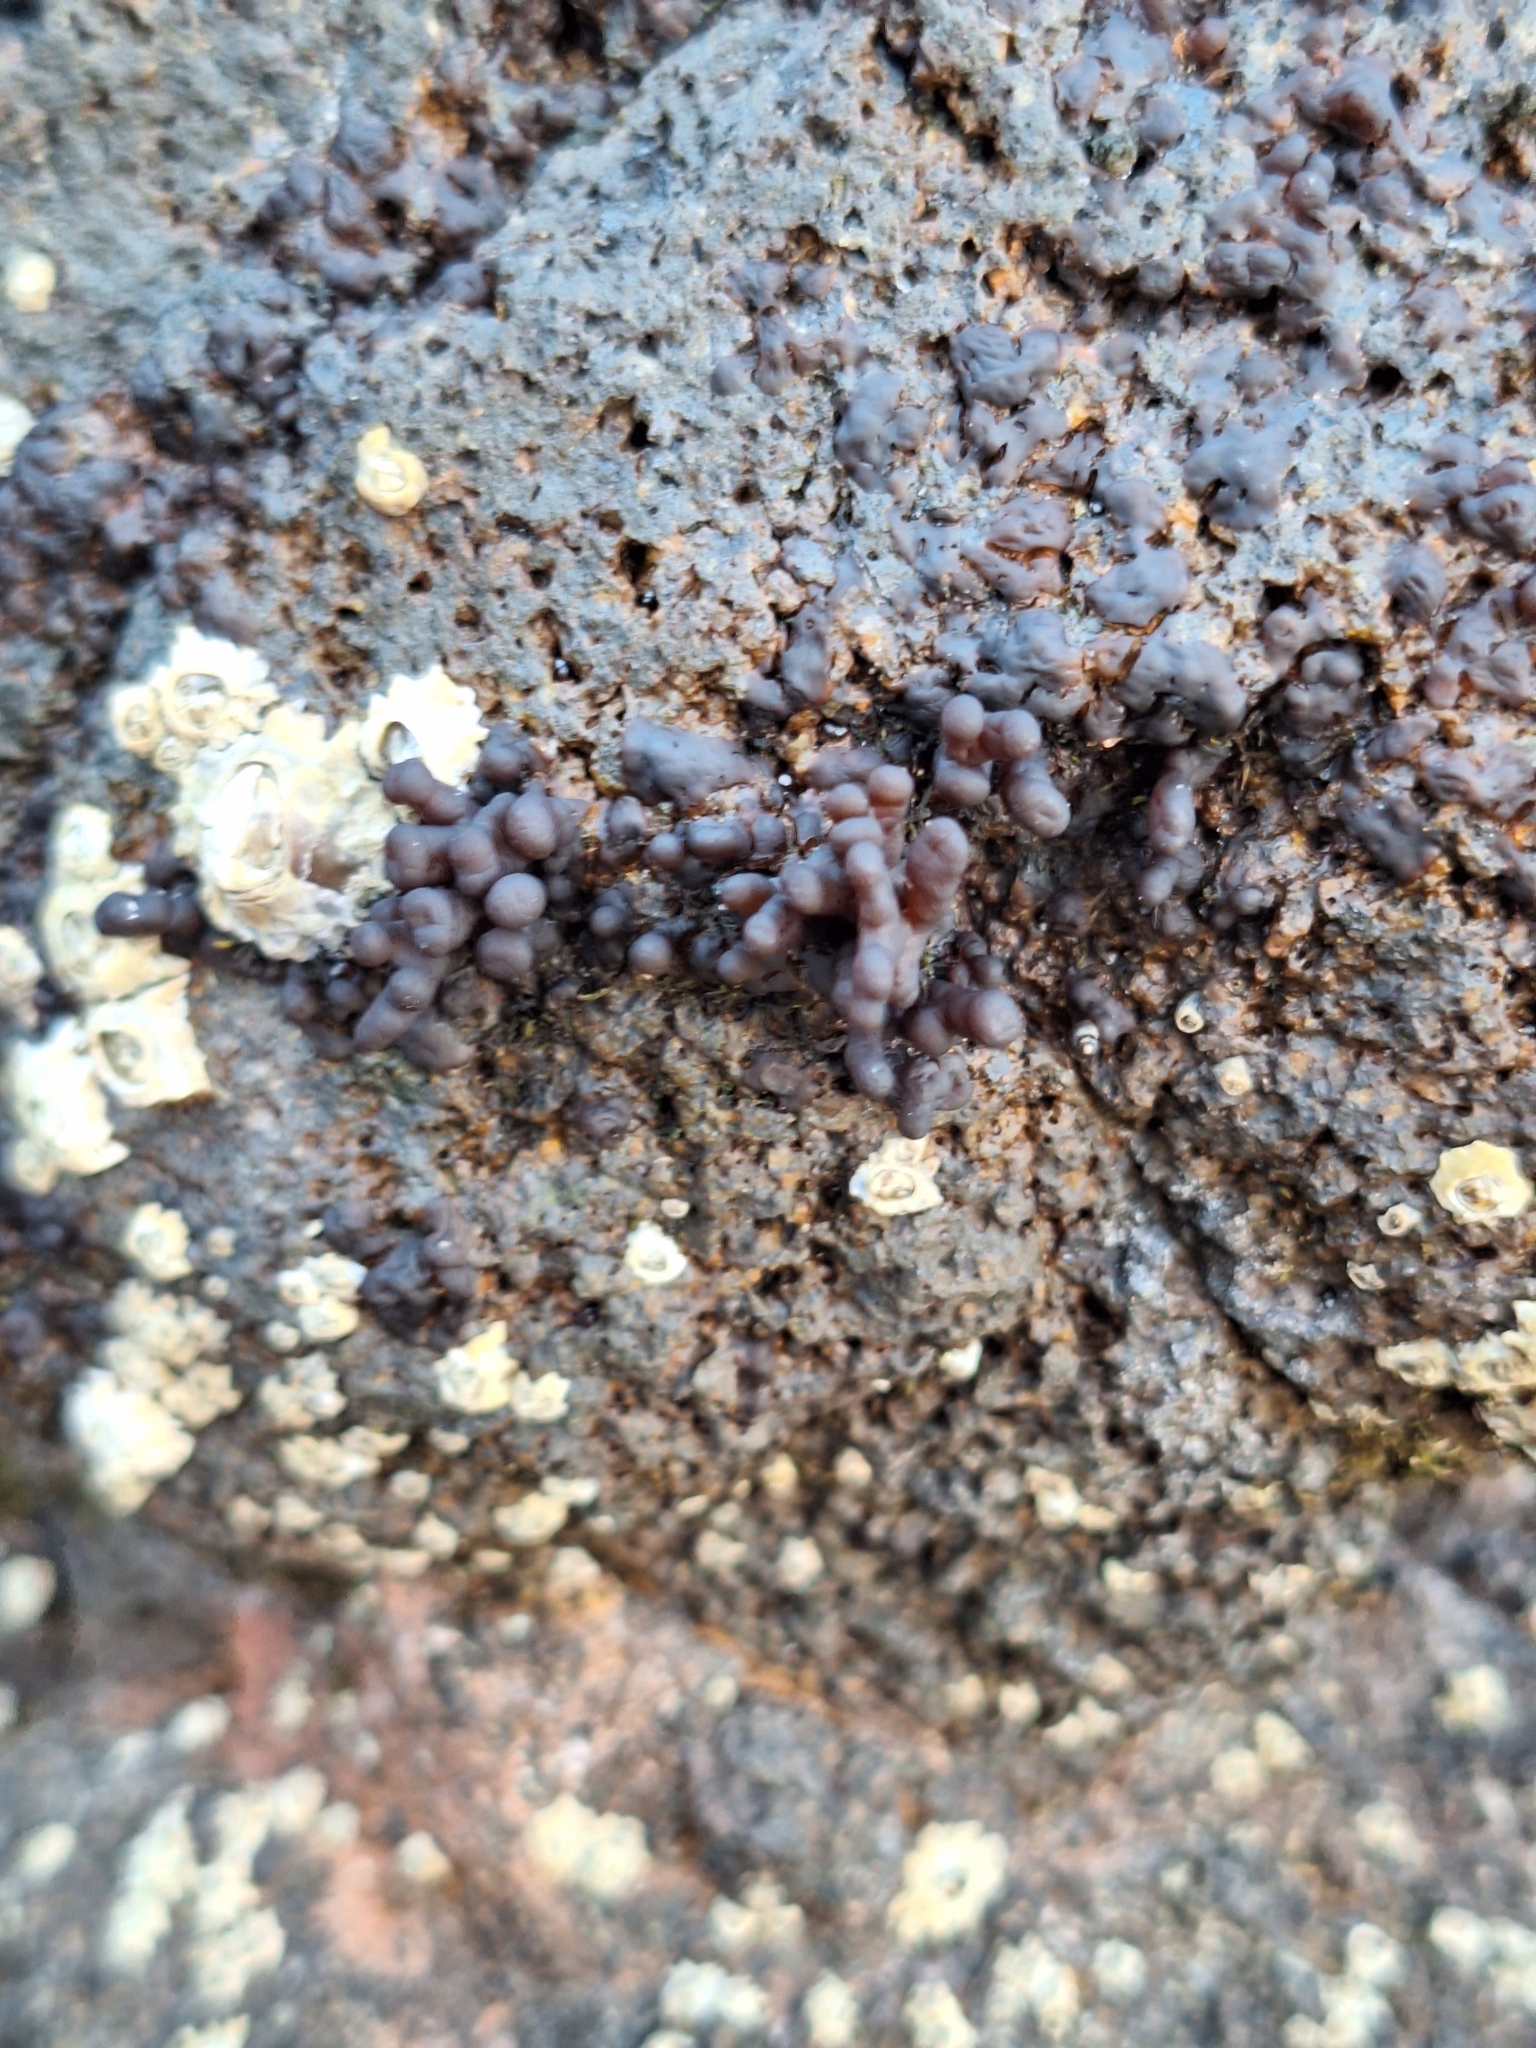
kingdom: Plantae
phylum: Rhodophyta
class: Florideophyceae
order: Hildenbrandiales
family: Hildenbrandiaceae
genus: Apophlaea
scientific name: Apophlaea sinclairii
